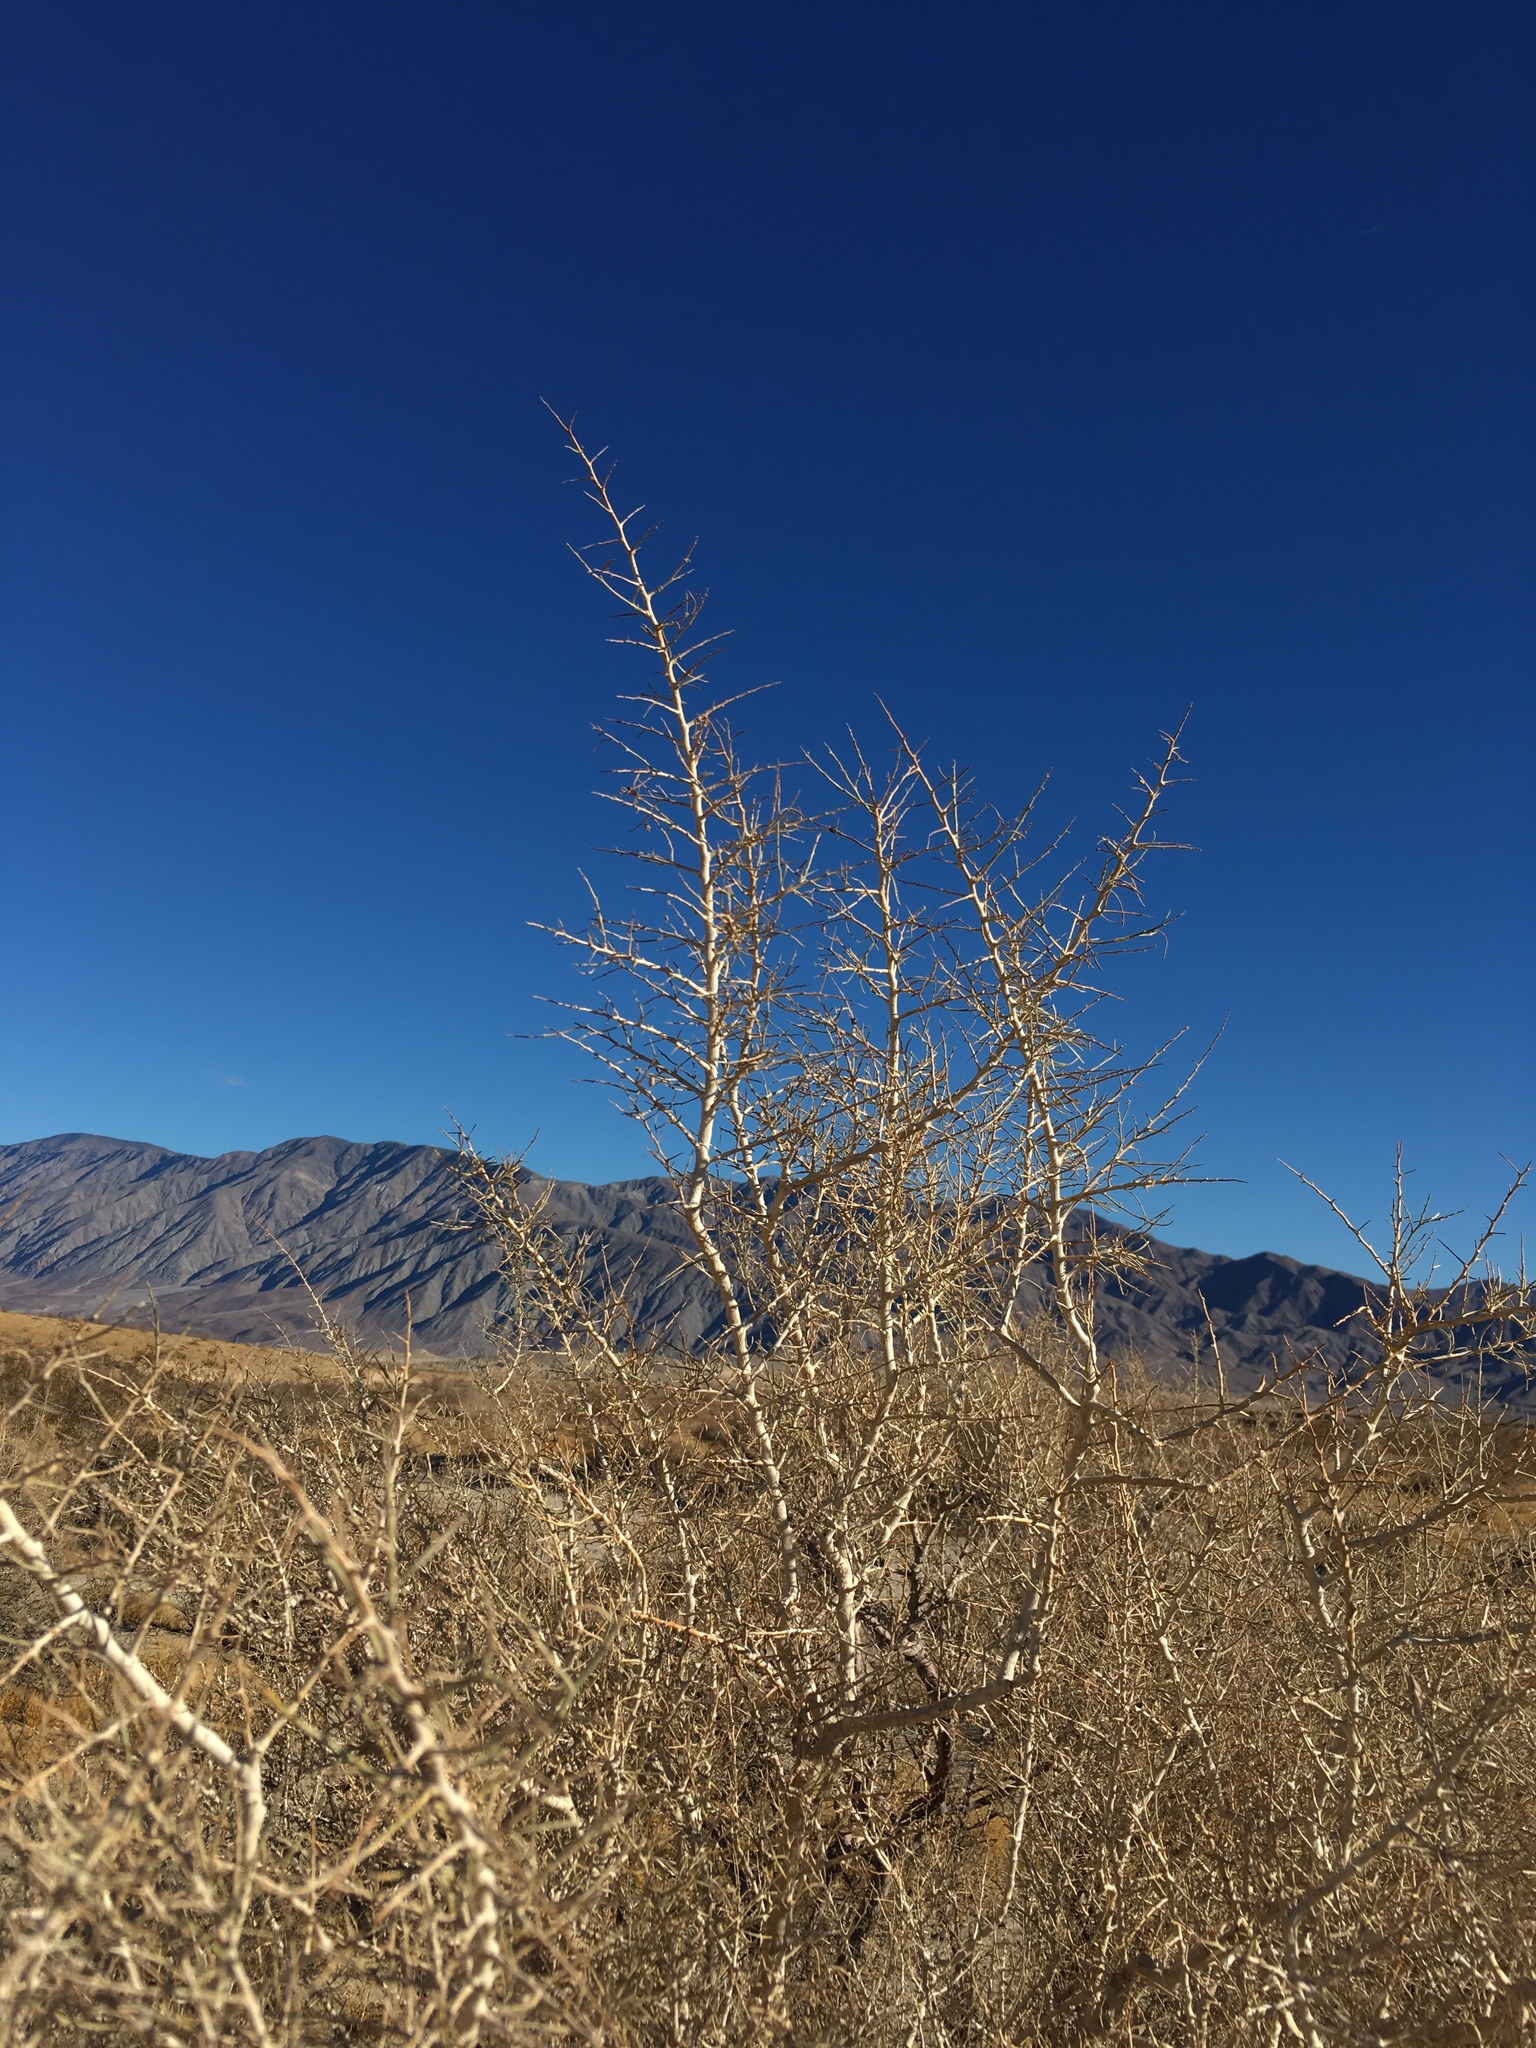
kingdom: Plantae
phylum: Tracheophyta
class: Magnoliopsida
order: Fabales
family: Fabaceae
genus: Psorothamnus
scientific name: Psorothamnus schottii
